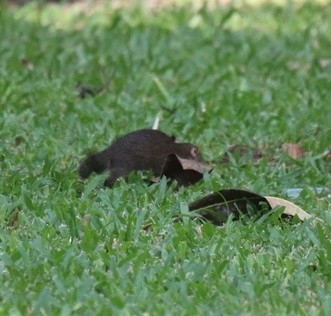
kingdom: Animalia
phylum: Chordata
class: Mammalia
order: Scandentia
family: Tupaiidae
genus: Tupaia
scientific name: Tupaia belangeri
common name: Northern treeshrew
